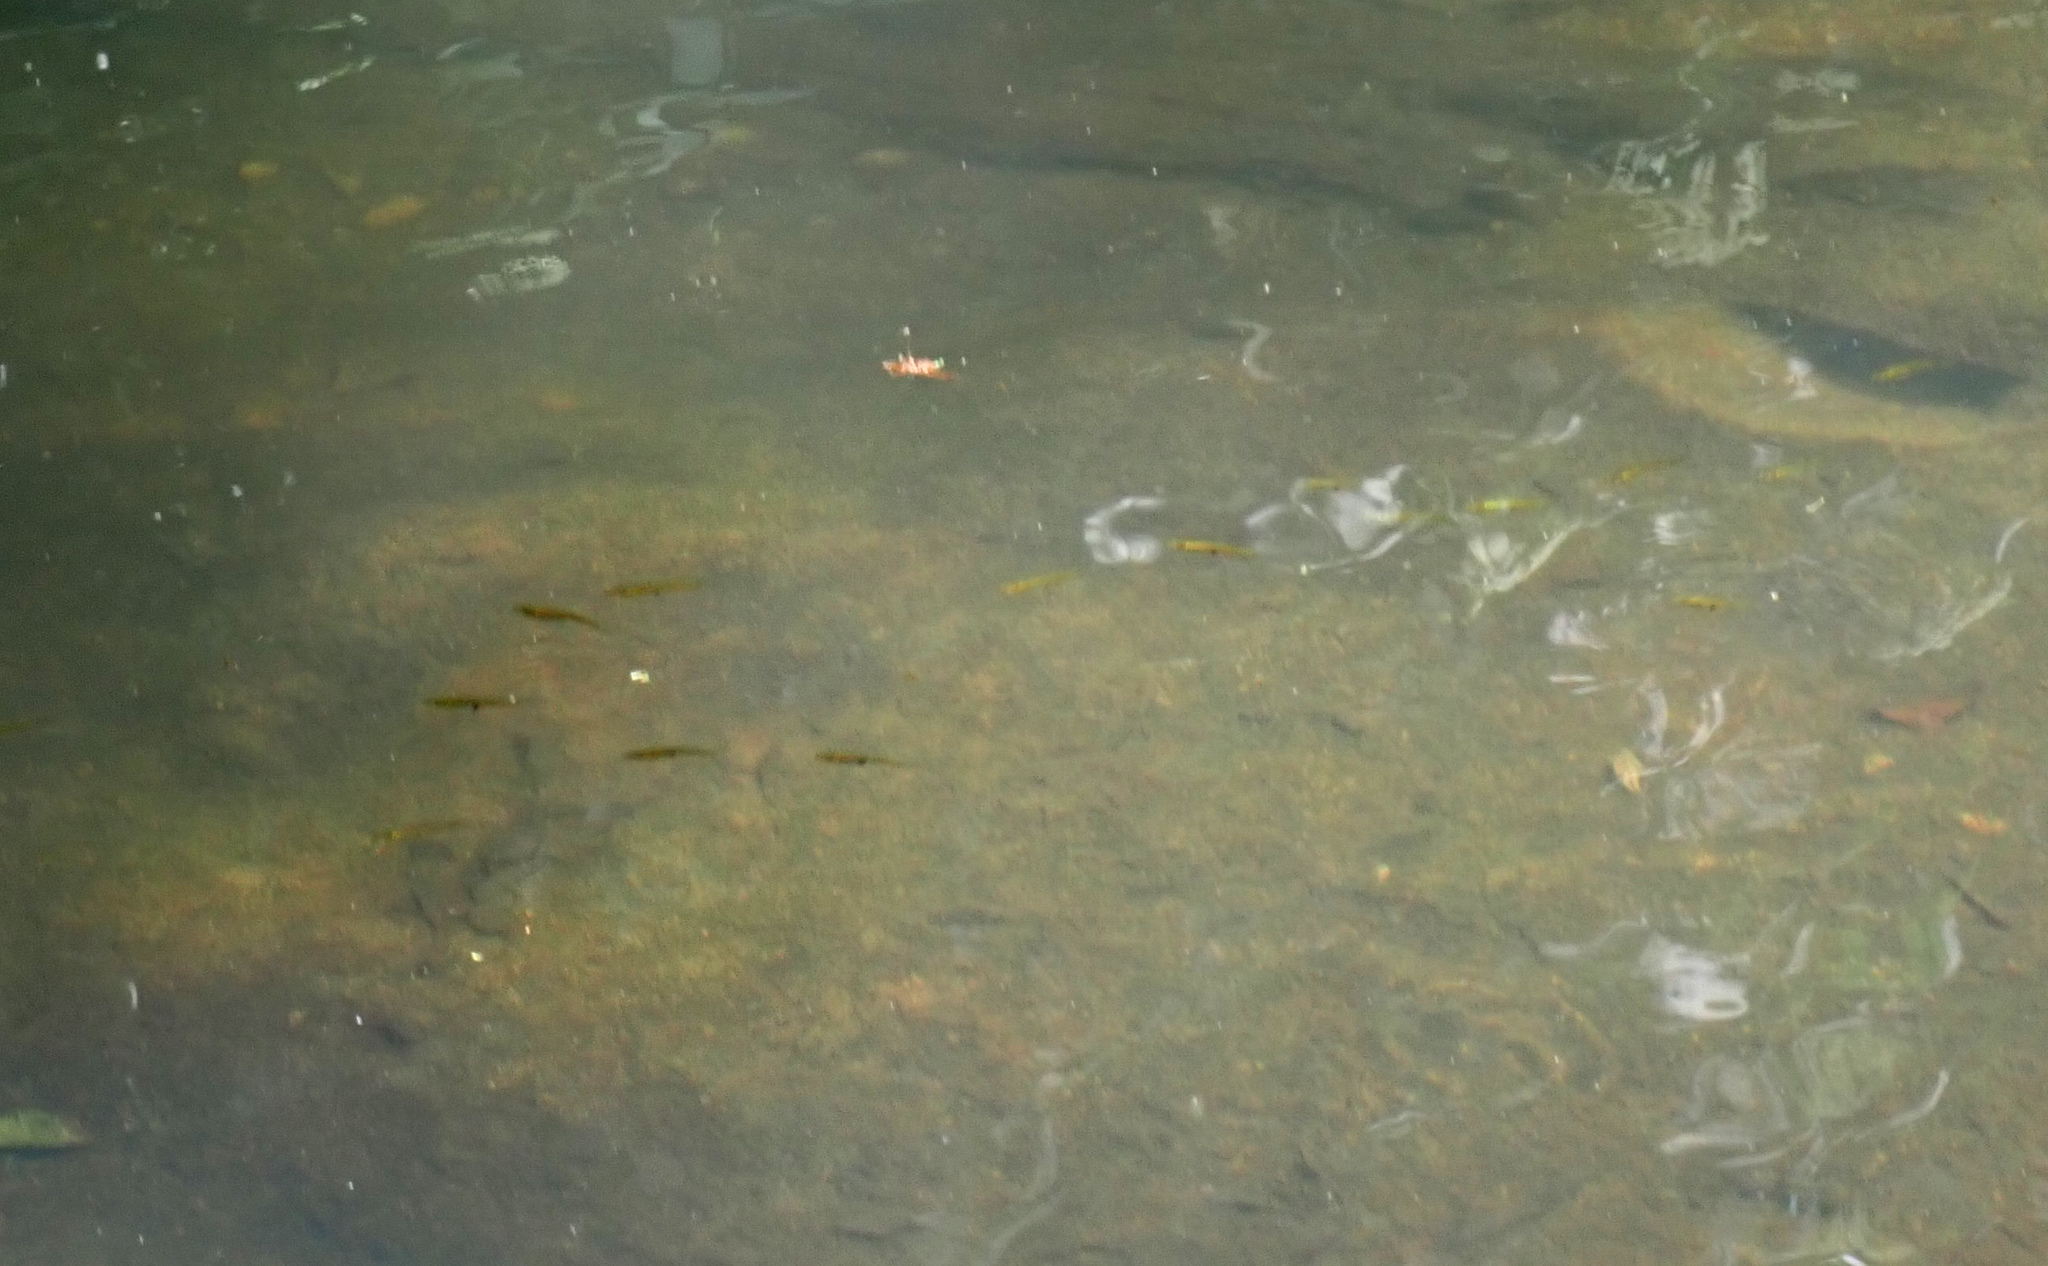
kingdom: Animalia
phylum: Chordata
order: Cyprinodontiformes
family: Poeciliidae
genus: Gambusia
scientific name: Gambusia holbrooki
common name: Eastern mosquitofish
